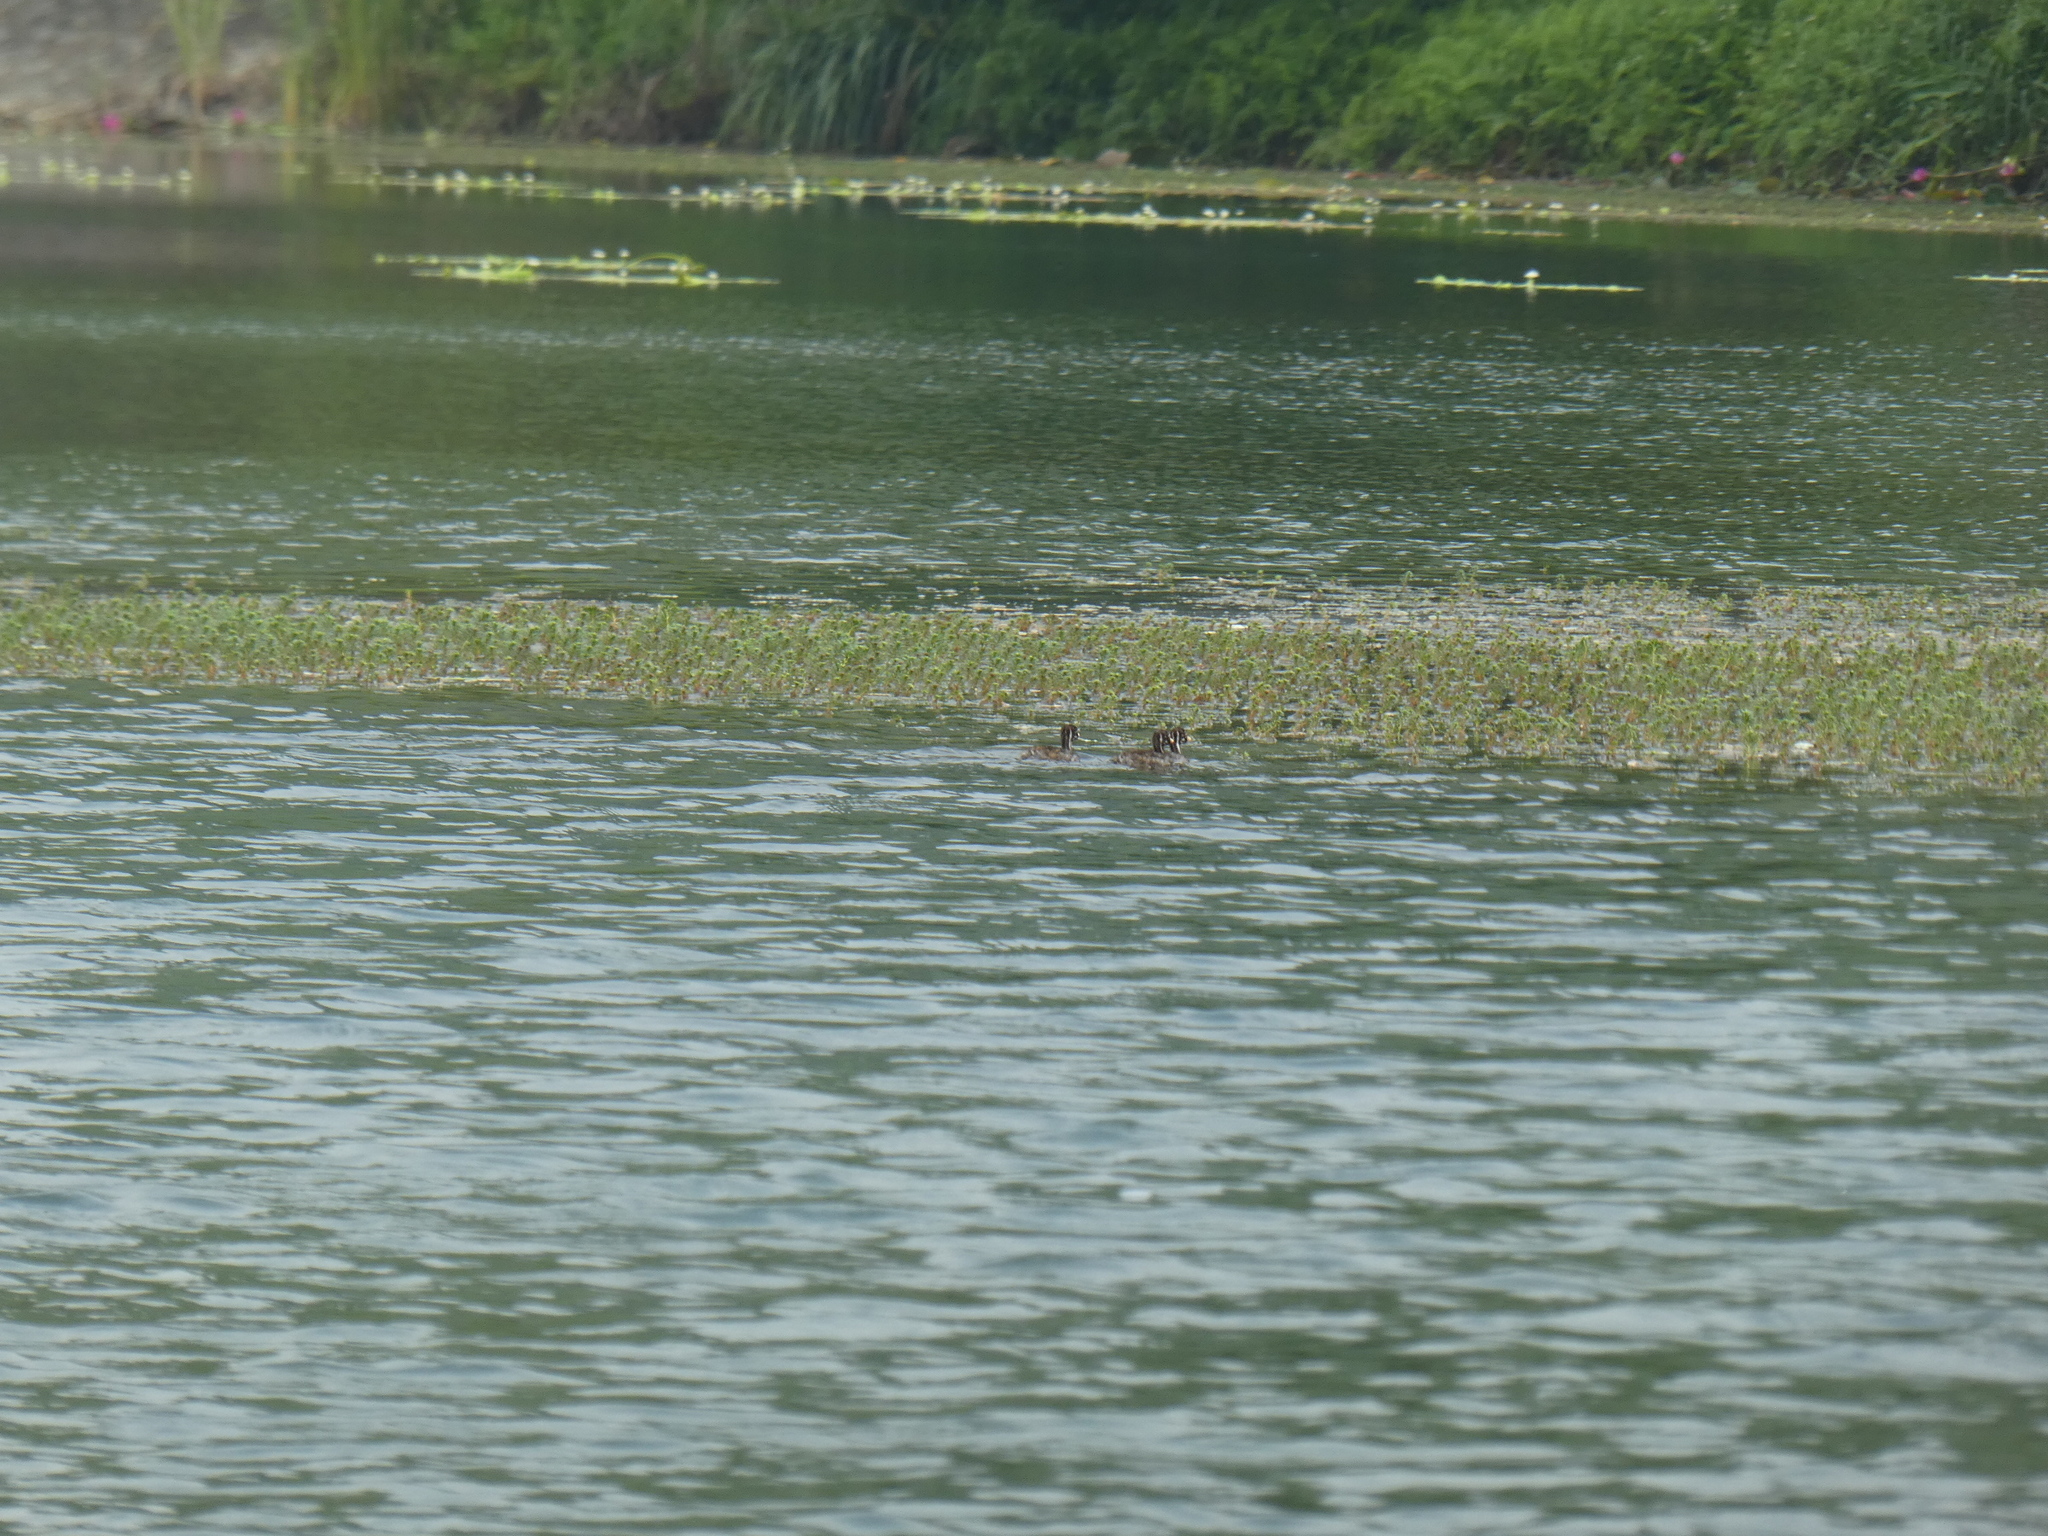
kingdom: Animalia
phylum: Chordata
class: Aves
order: Podicipediformes
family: Podicipedidae
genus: Tachybaptus
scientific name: Tachybaptus ruficollis
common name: Little grebe
